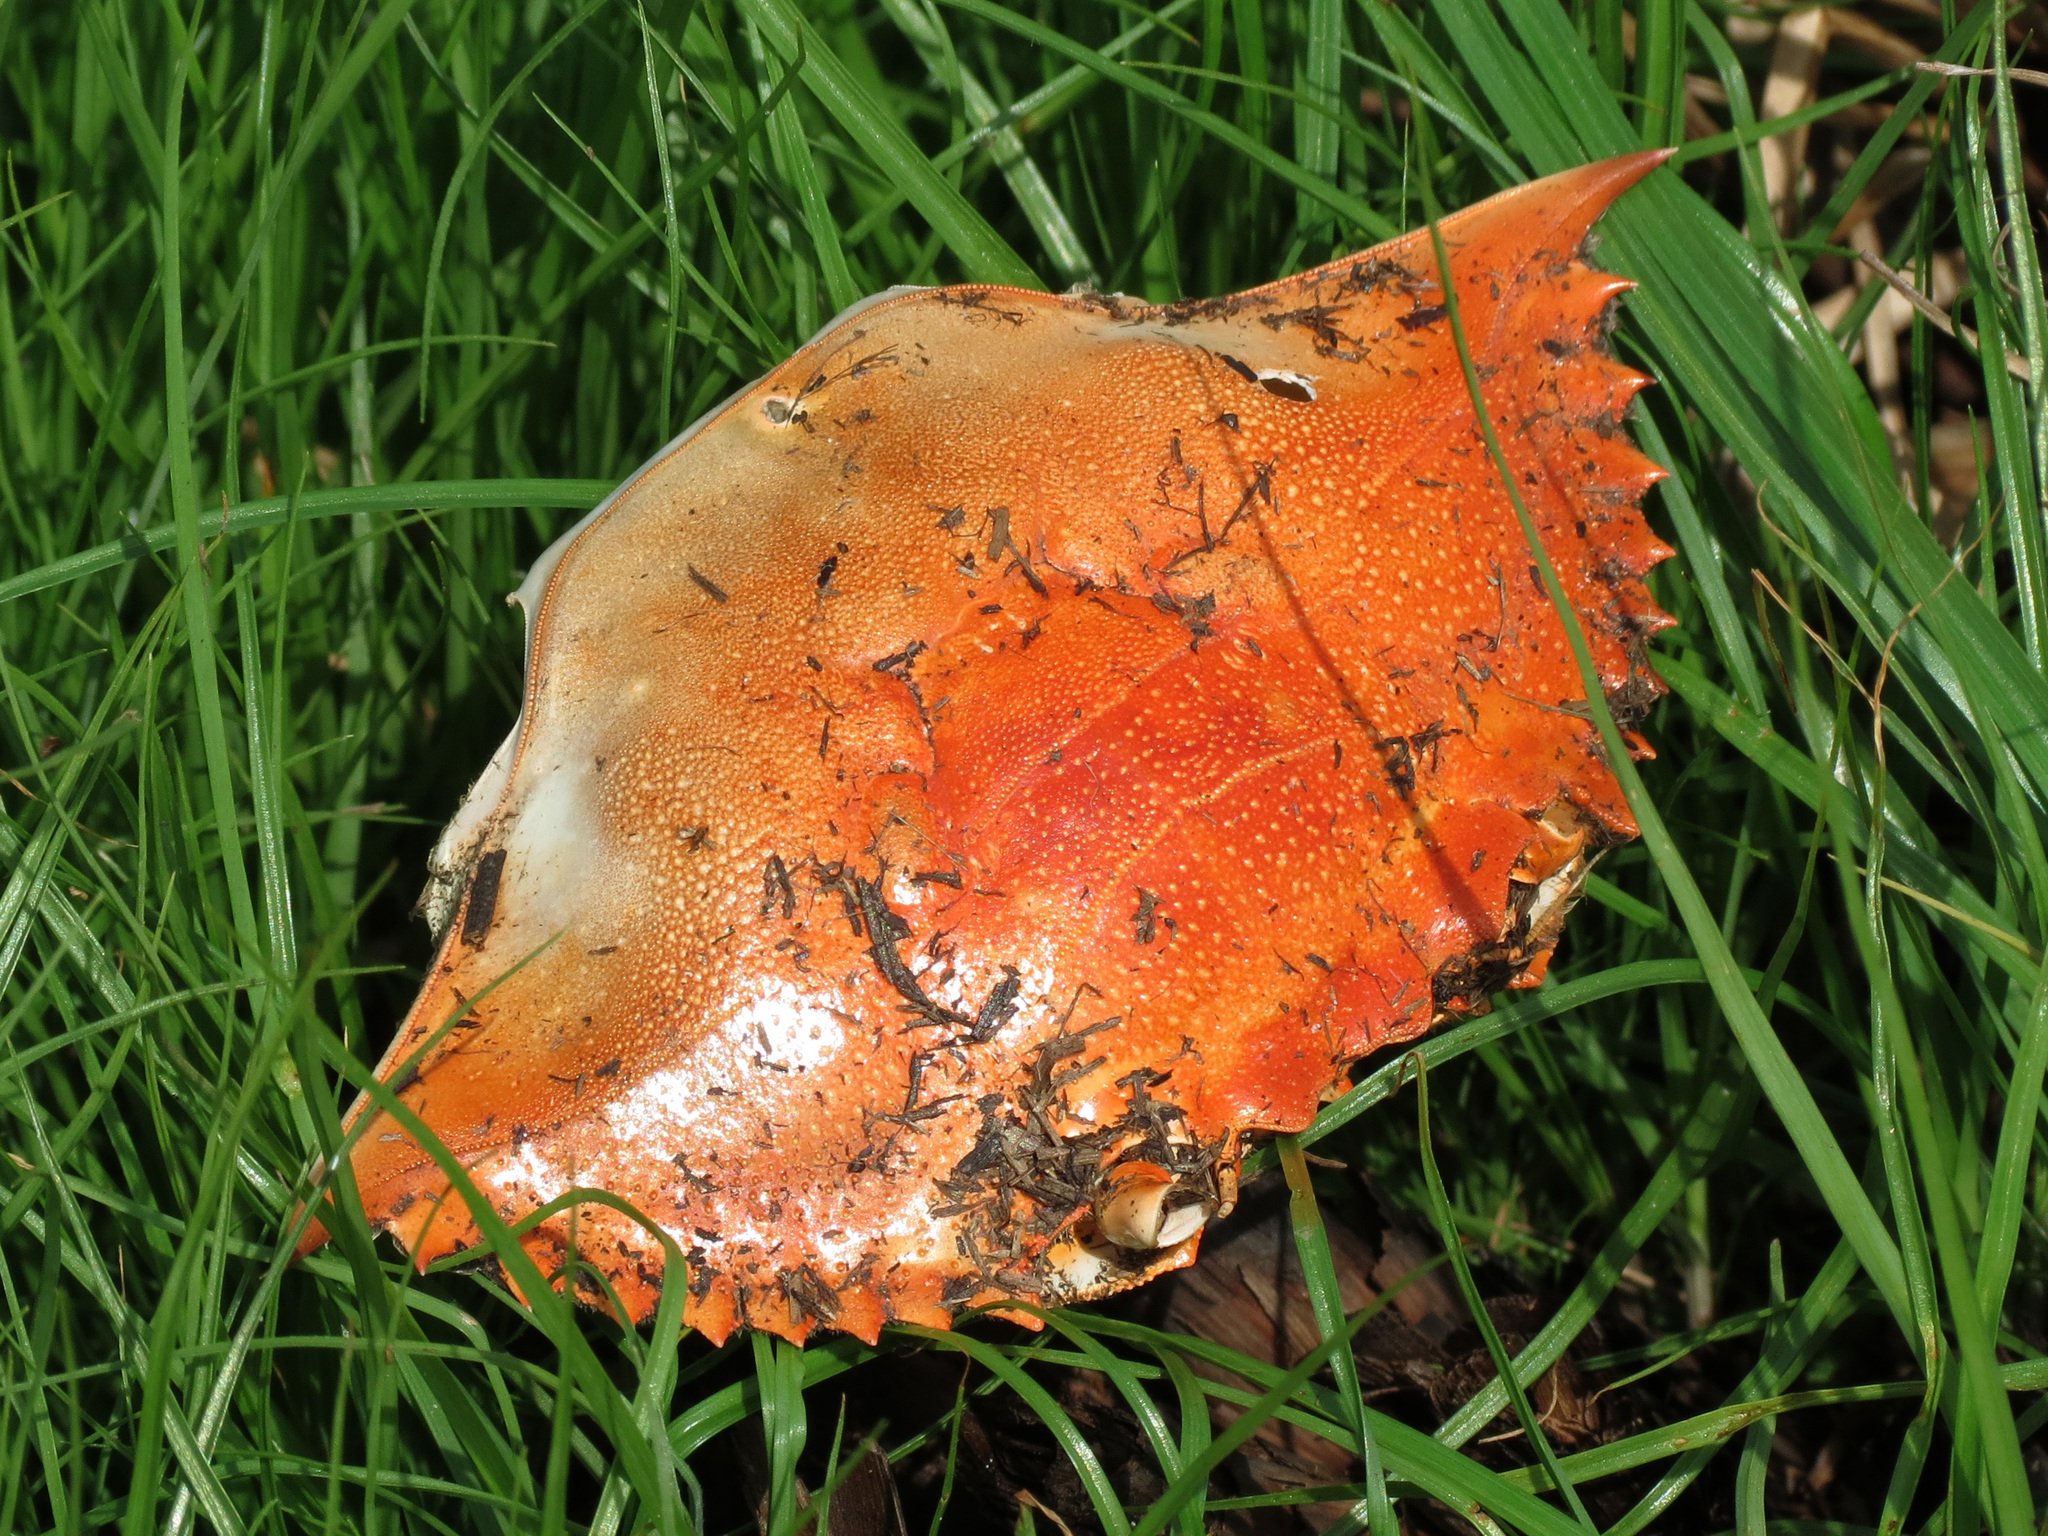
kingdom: Animalia
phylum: Arthropoda
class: Malacostraca
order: Decapoda
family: Portunidae
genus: Callinectes
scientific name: Callinectes sapidus
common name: Blue crab
